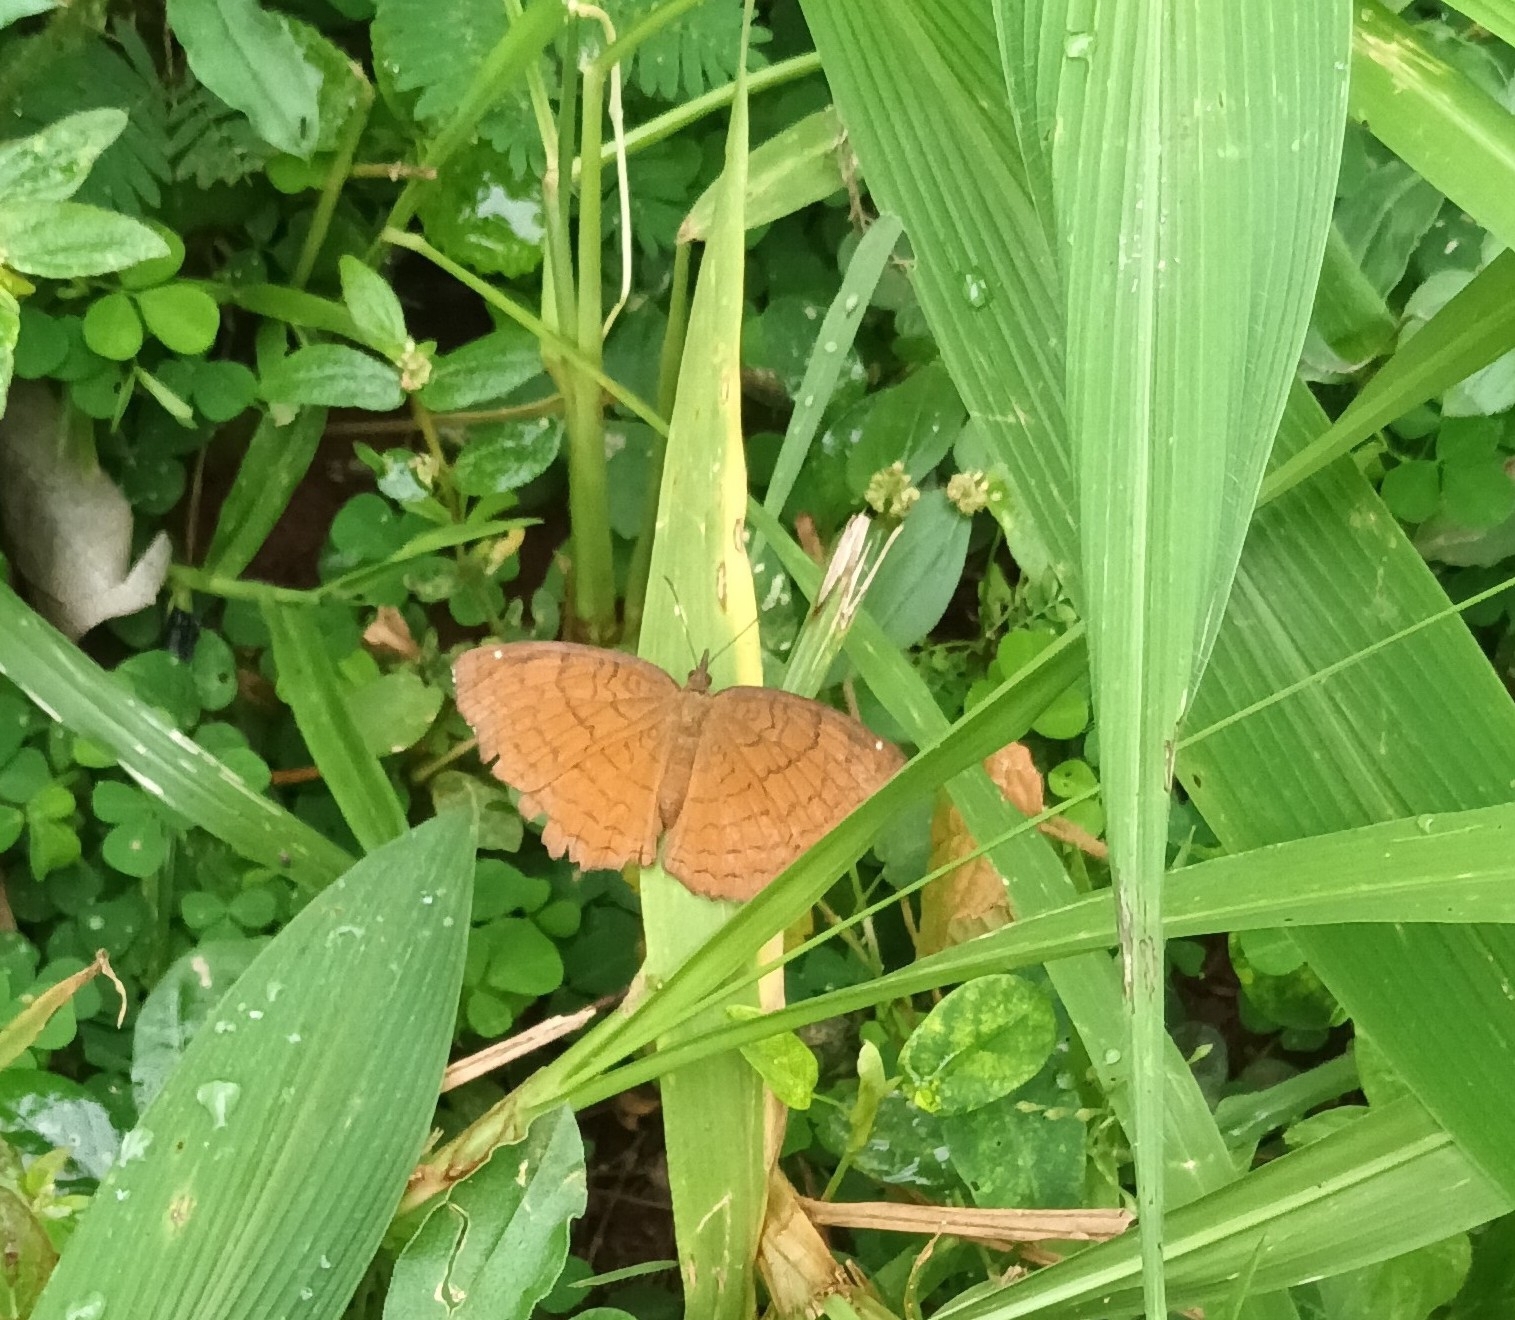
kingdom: Animalia
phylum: Arthropoda
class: Insecta
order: Lepidoptera
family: Nymphalidae
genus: Ariadne
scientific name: Ariadne ariadne
